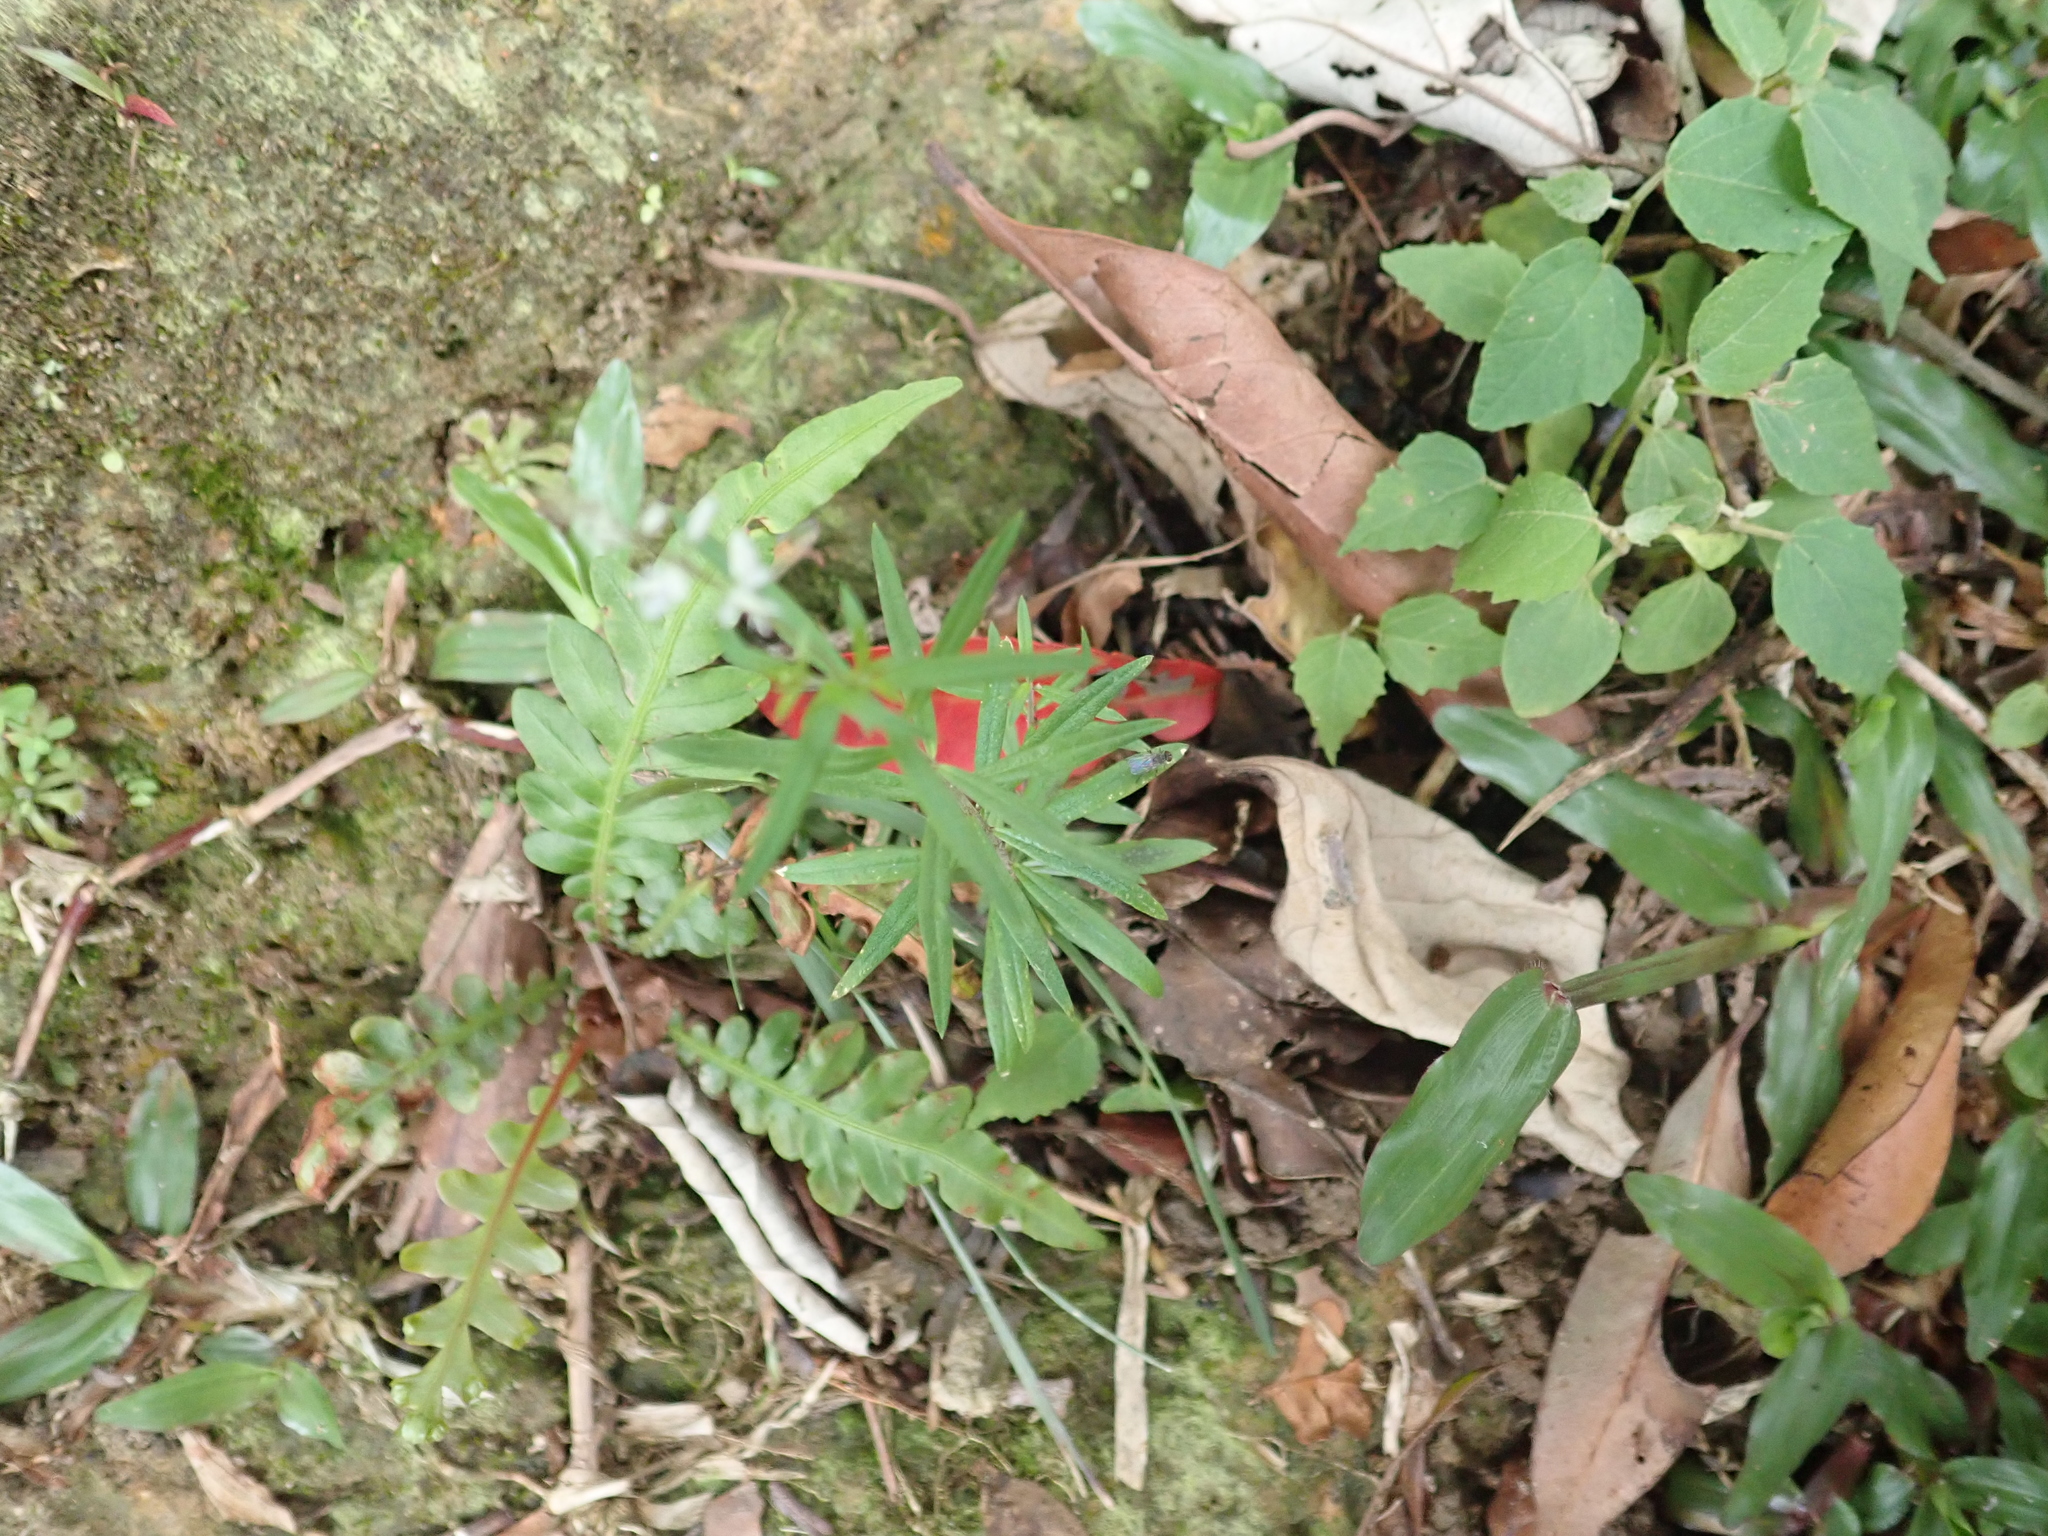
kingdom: Plantae
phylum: Tracheophyta
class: Magnoliopsida
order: Fabales
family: Polygalaceae
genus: Polygala
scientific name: Polygala paniculata
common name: Orosne
